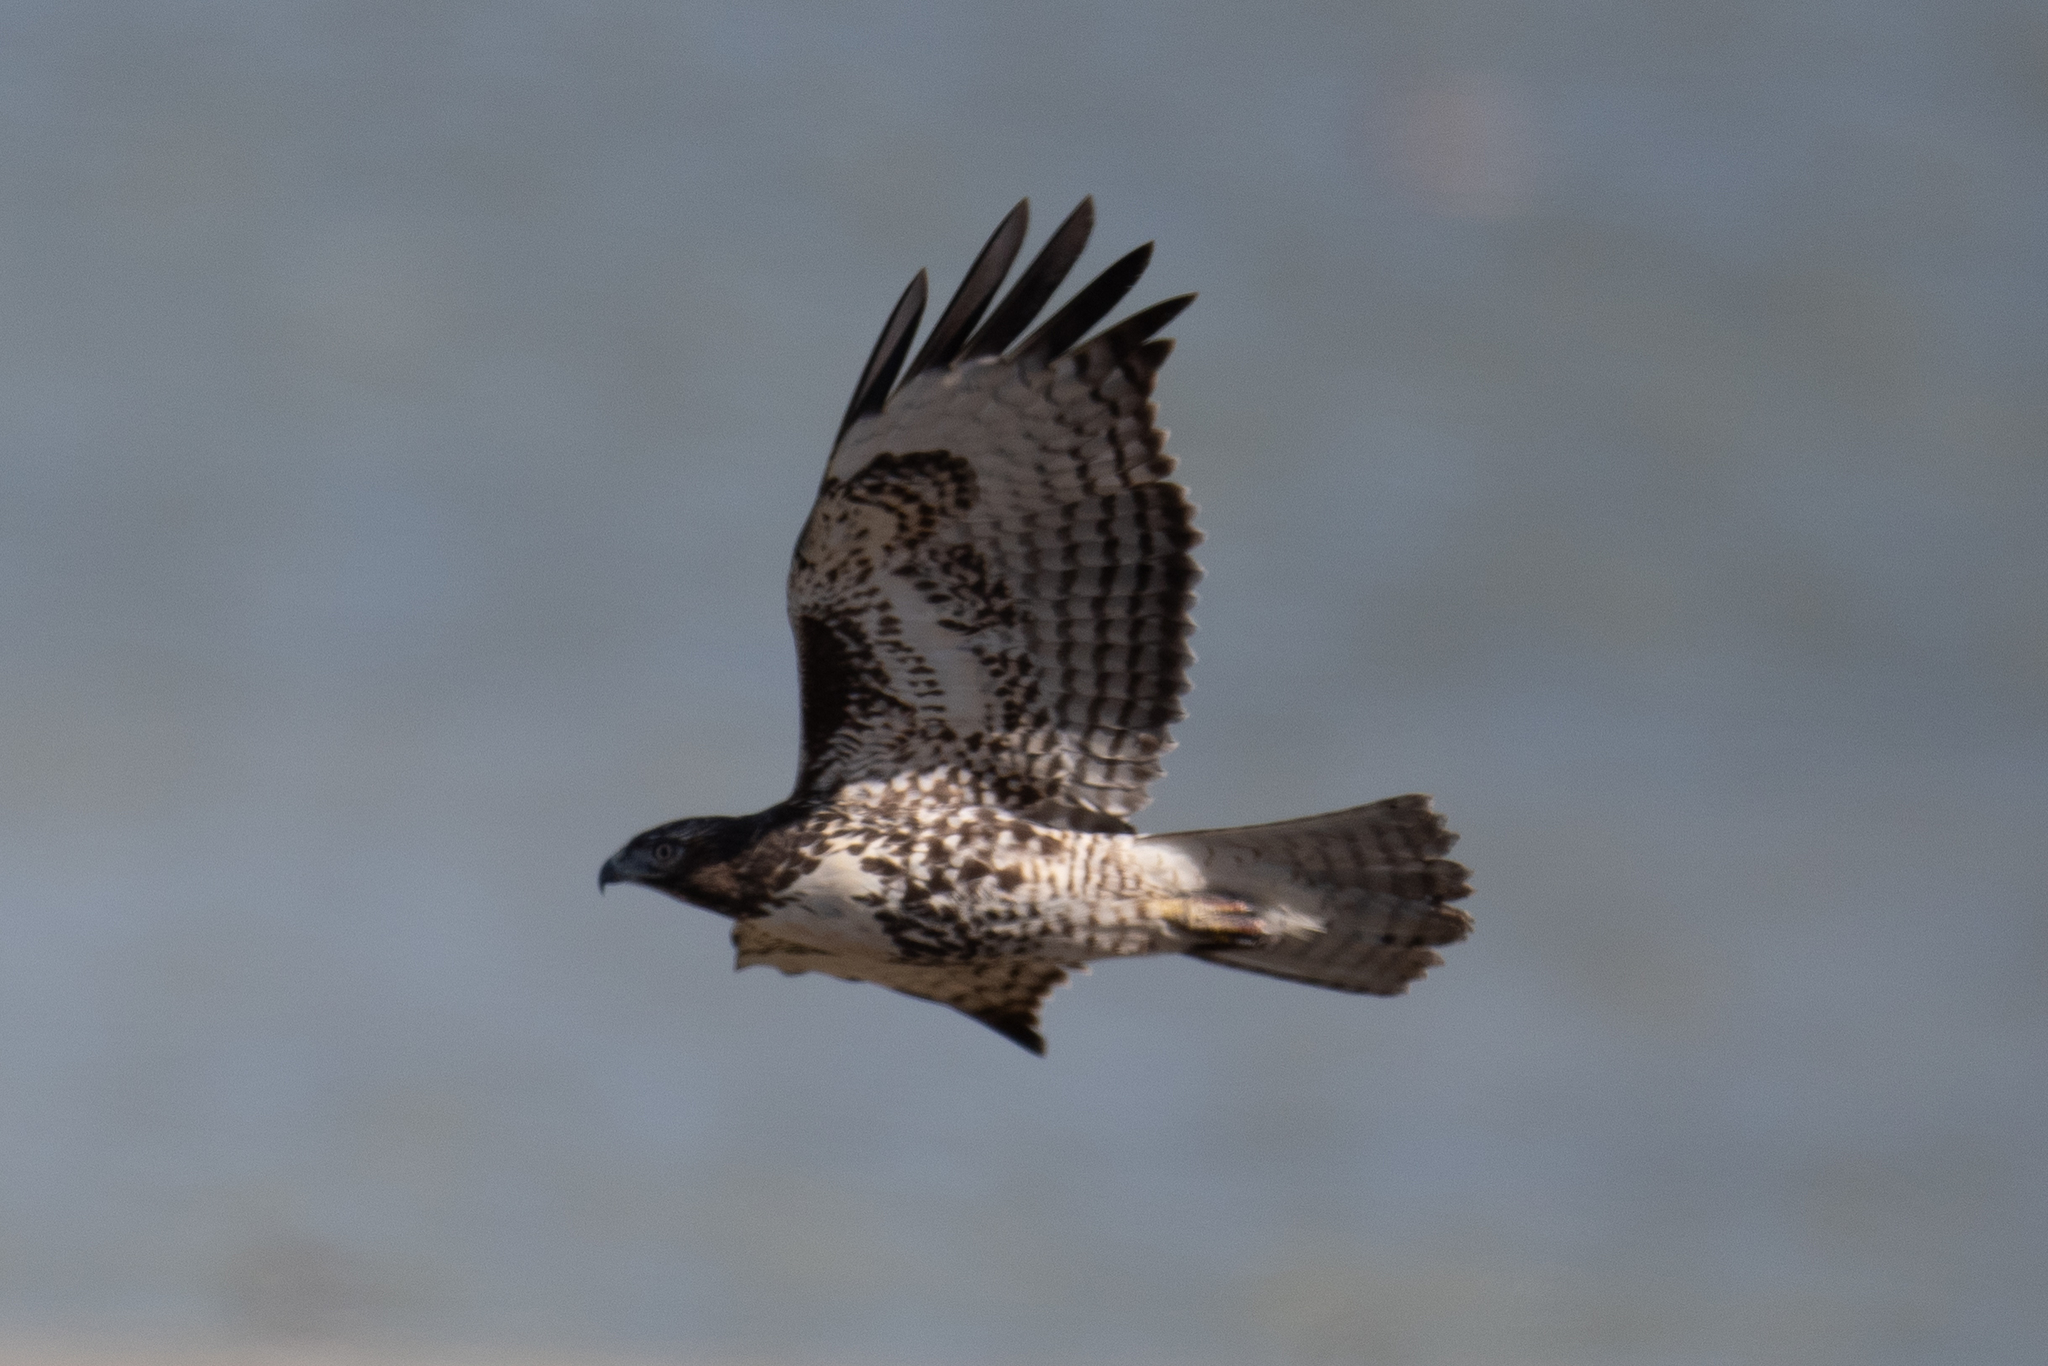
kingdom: Animalia
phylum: Chordata
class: Aves
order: Accipitriformes
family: Accipitridae
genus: Buteo
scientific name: Buteo jamaicensis
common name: Red-tailed hawk
